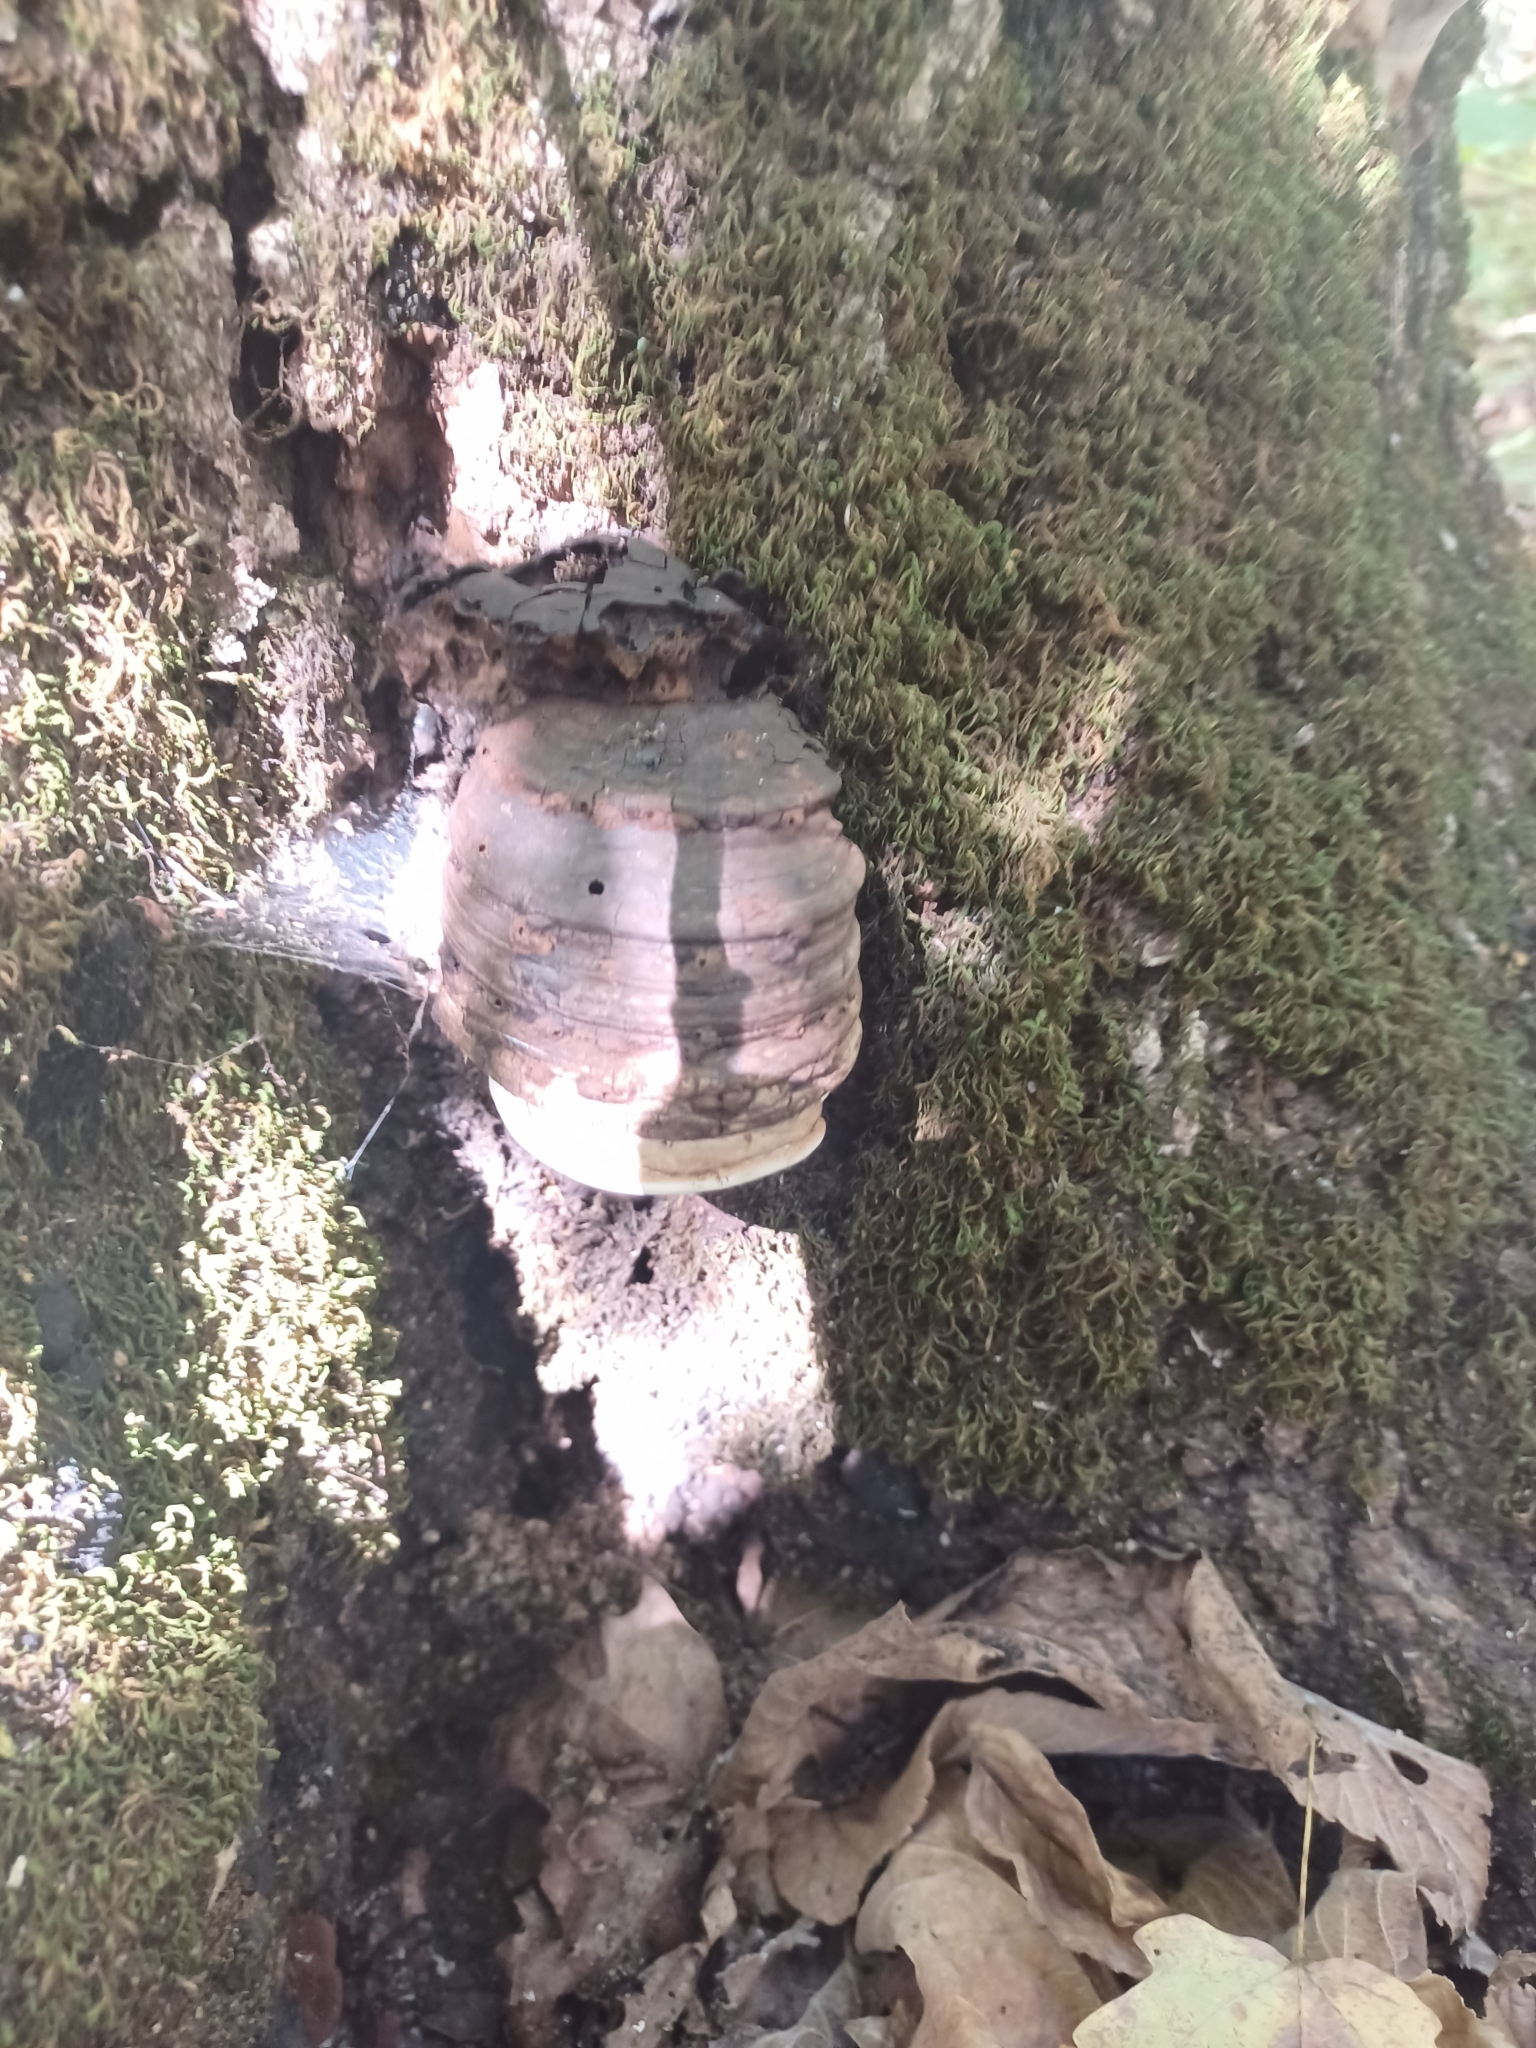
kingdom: Fungi
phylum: Basidiomycota
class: Agaricomycetes
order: Polyporales
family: Polyporaceae
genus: Ganoderma
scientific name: Ganoderma lobatum
